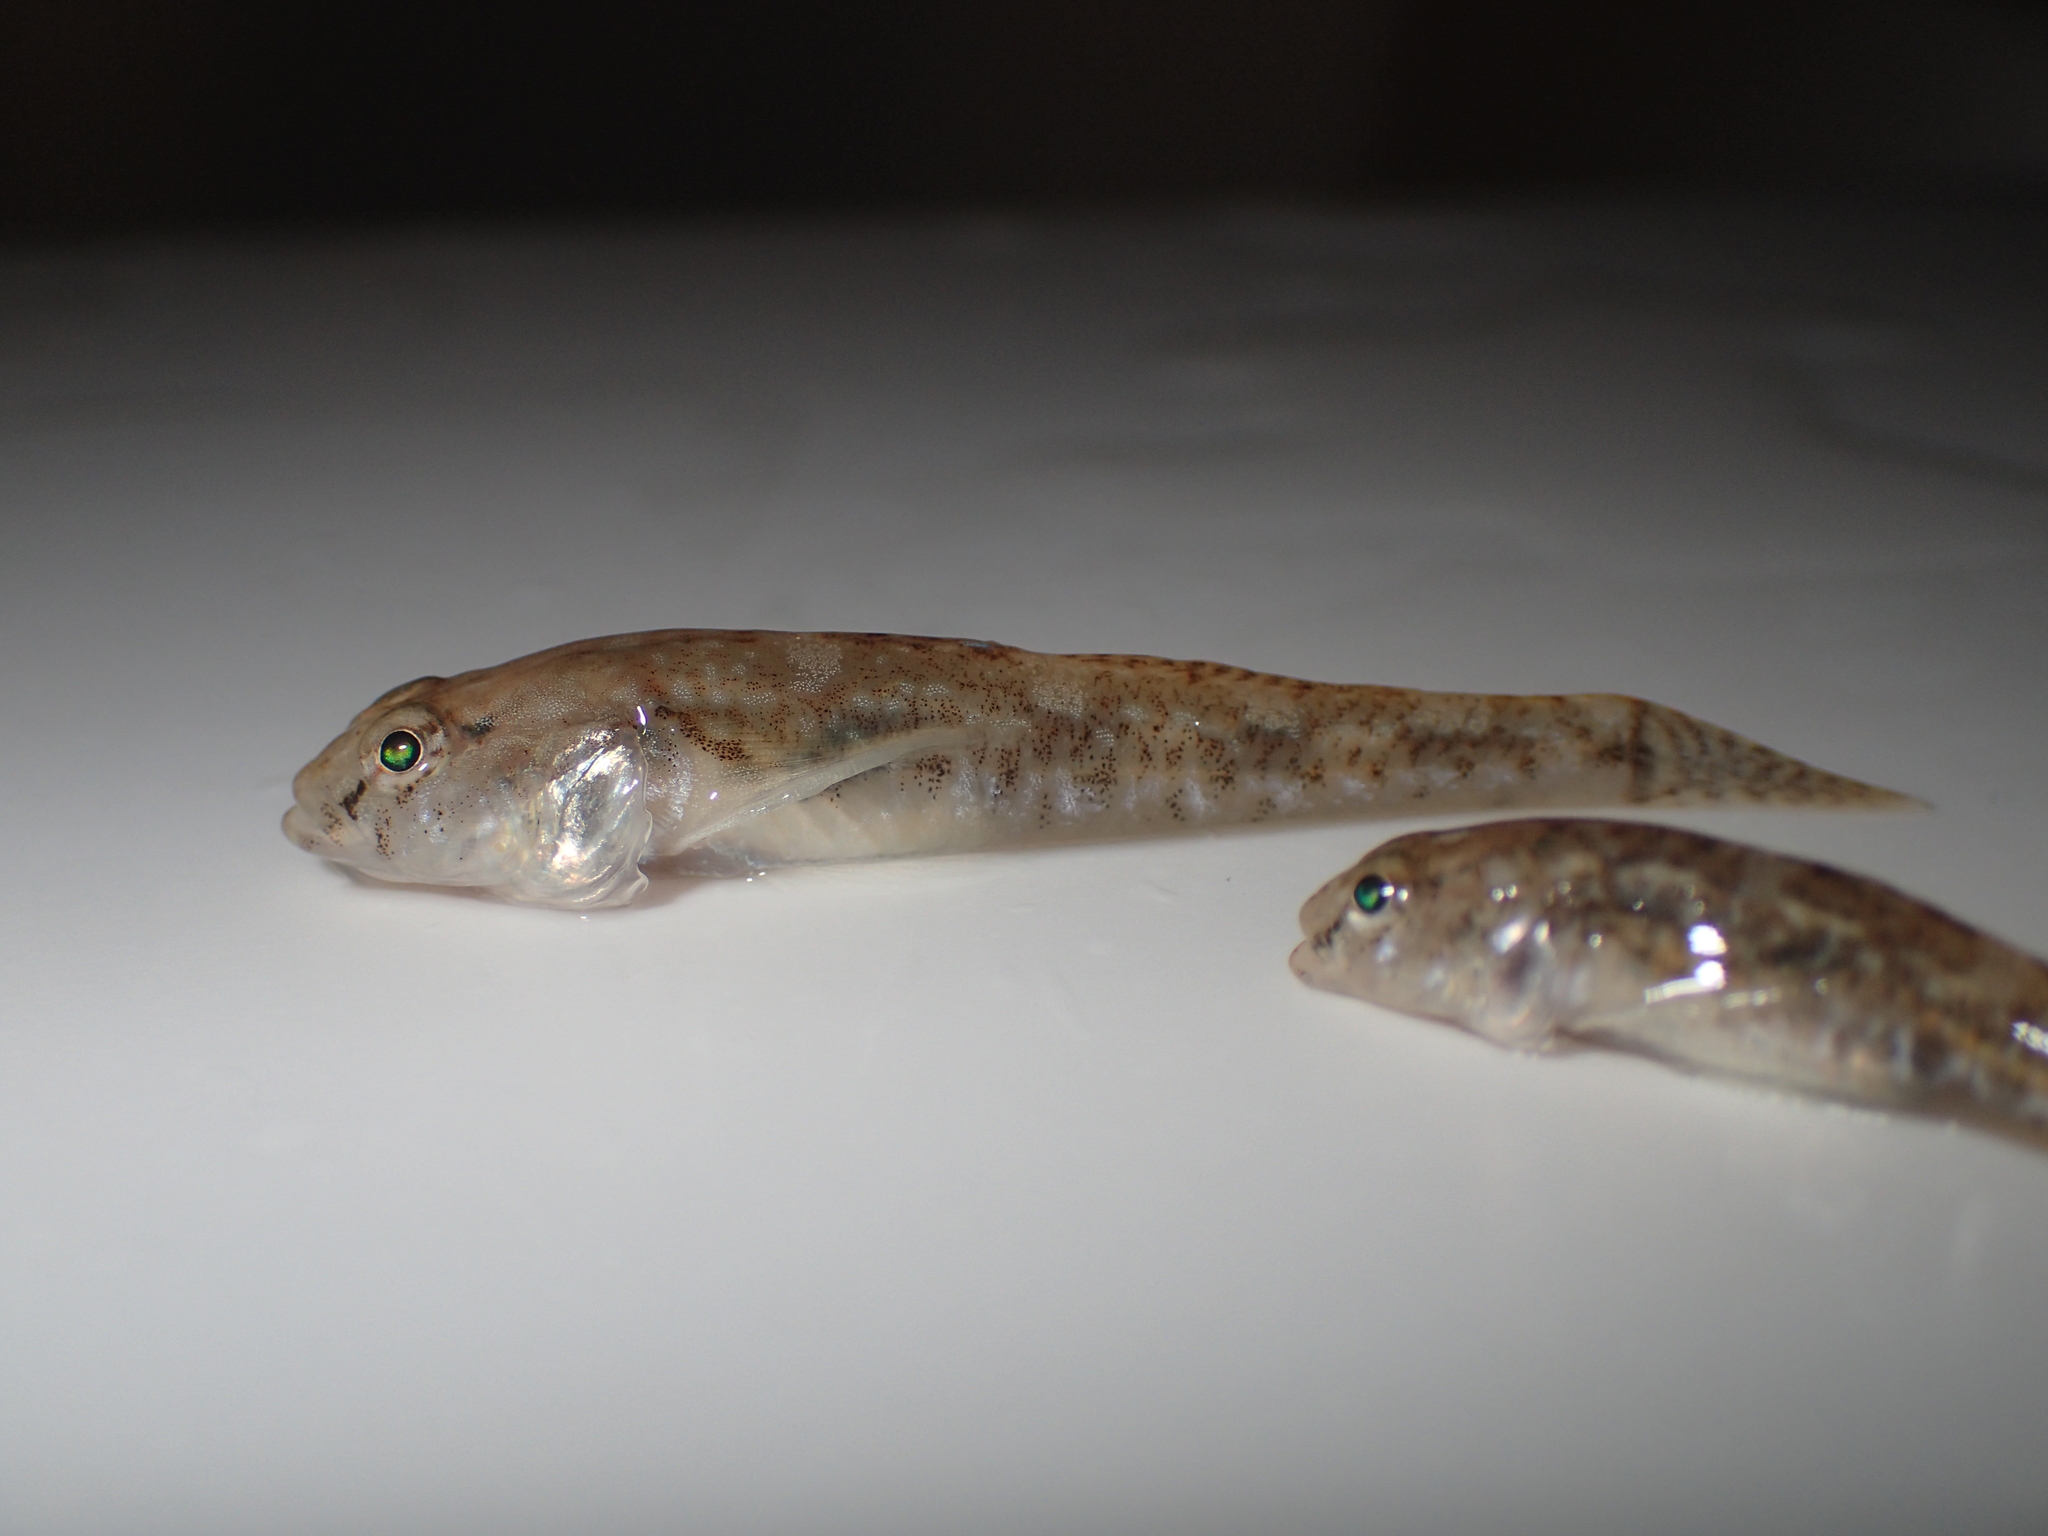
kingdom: Animalia
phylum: Chordata
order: Perciformes
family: Gobiidae
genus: Pomatoschistus
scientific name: Pomatoschistus microps
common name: Common goby
